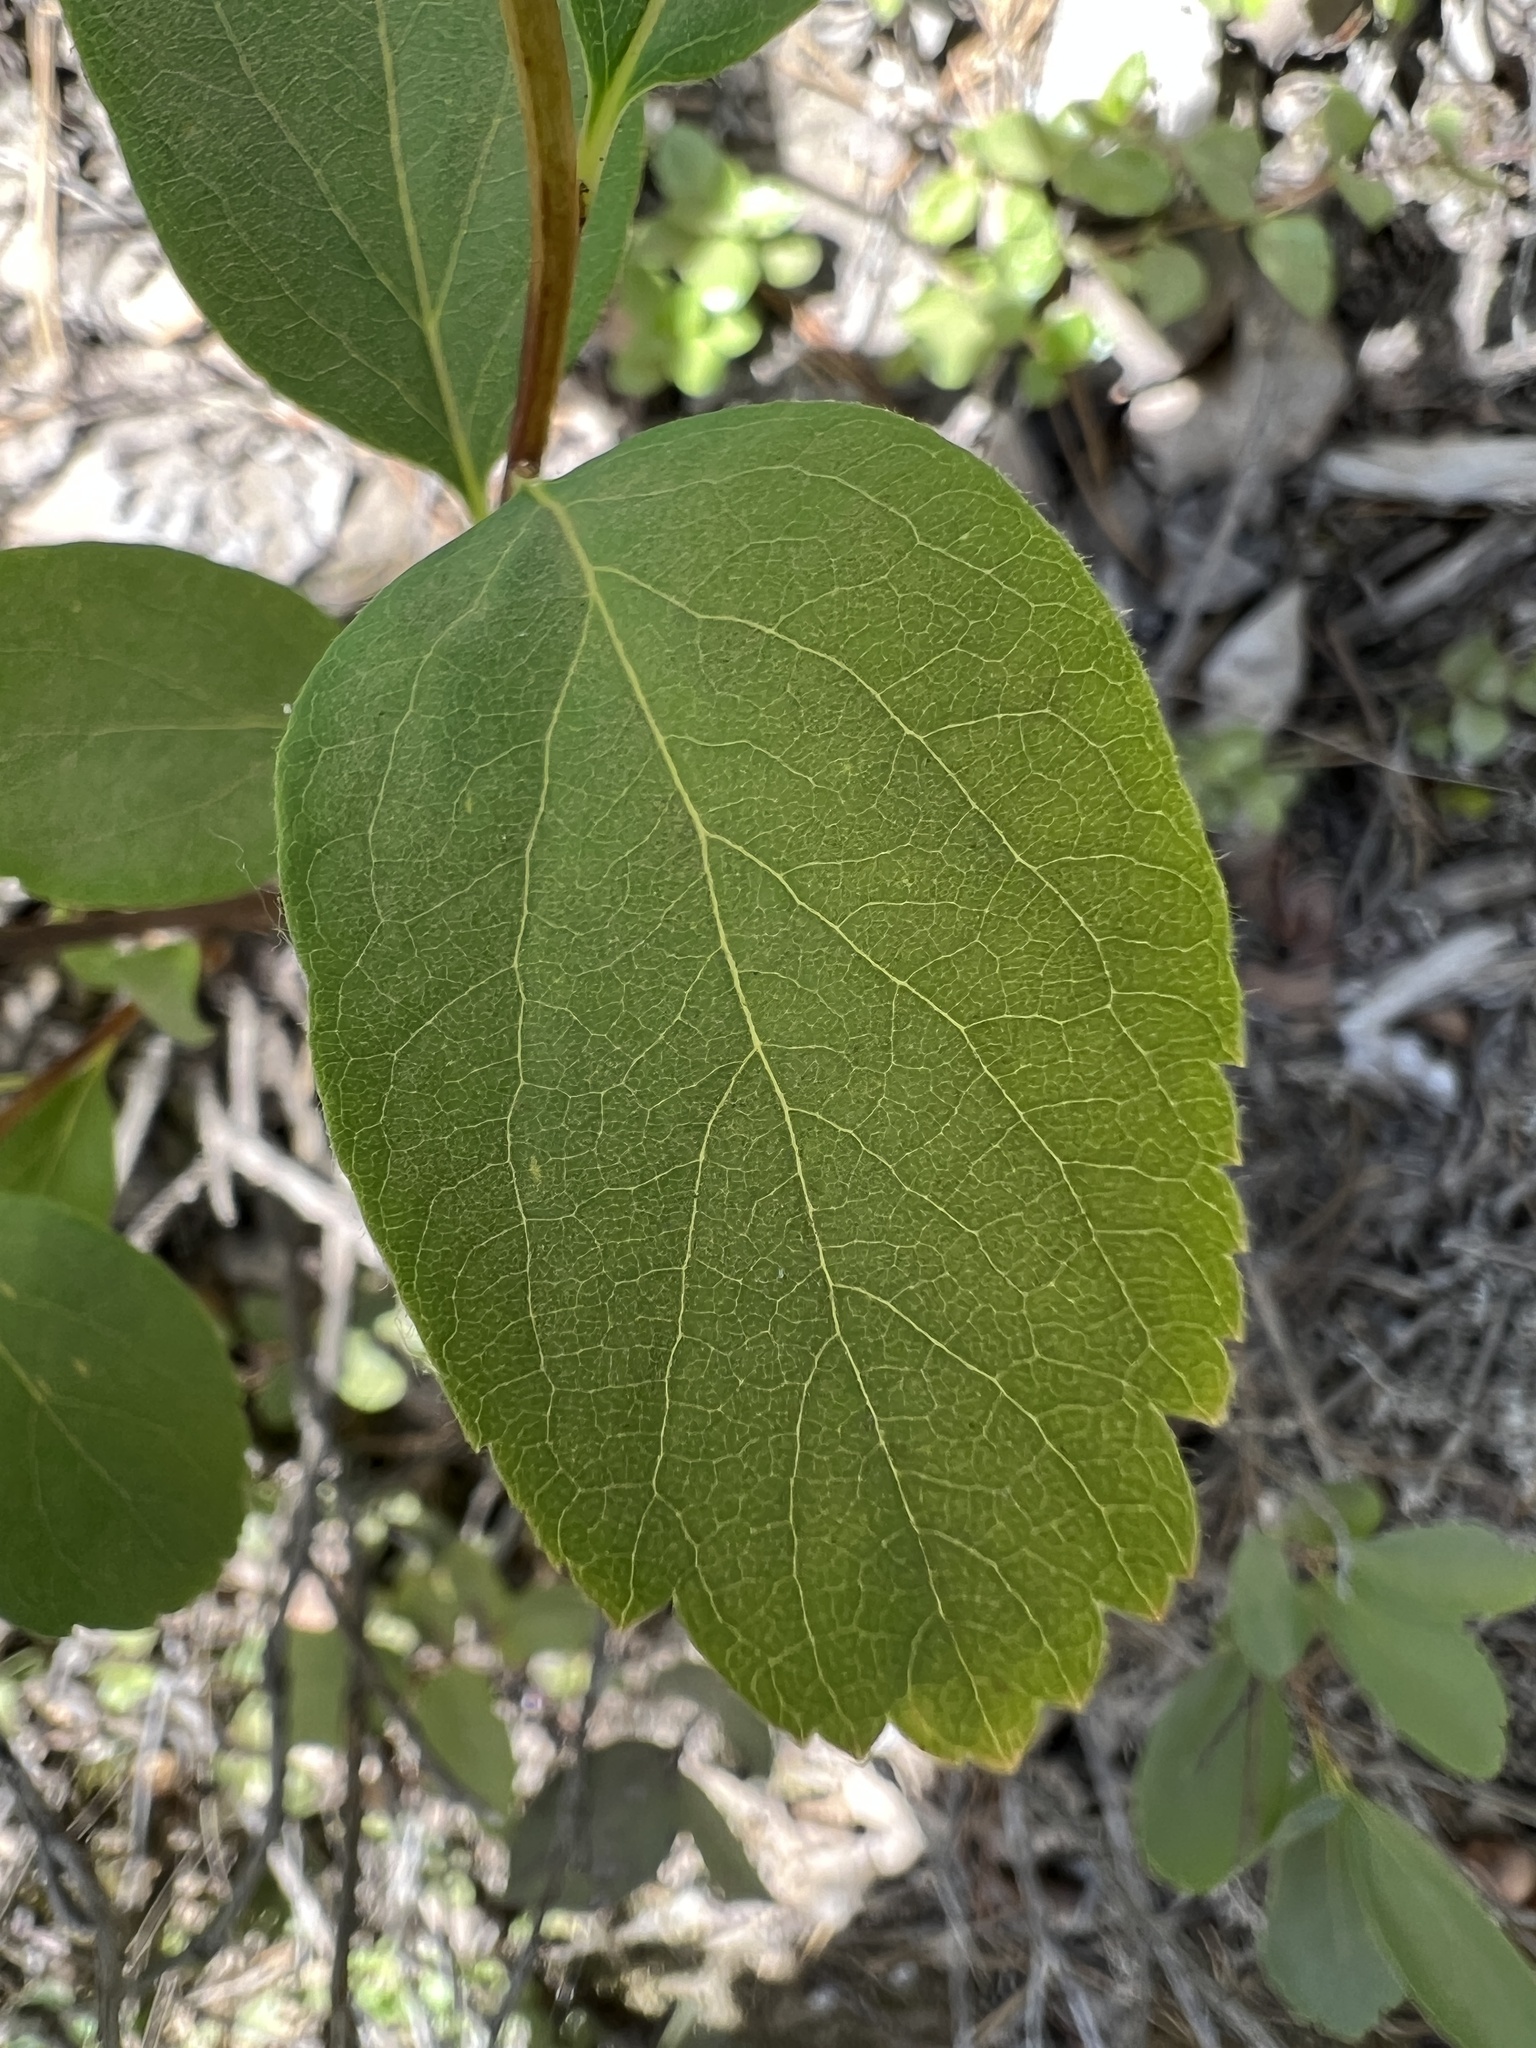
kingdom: Plantae
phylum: Tracheophyta
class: Magnoliopsida
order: Rosales
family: Rosaceae
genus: Spiraea
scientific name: Spiraea lucida
